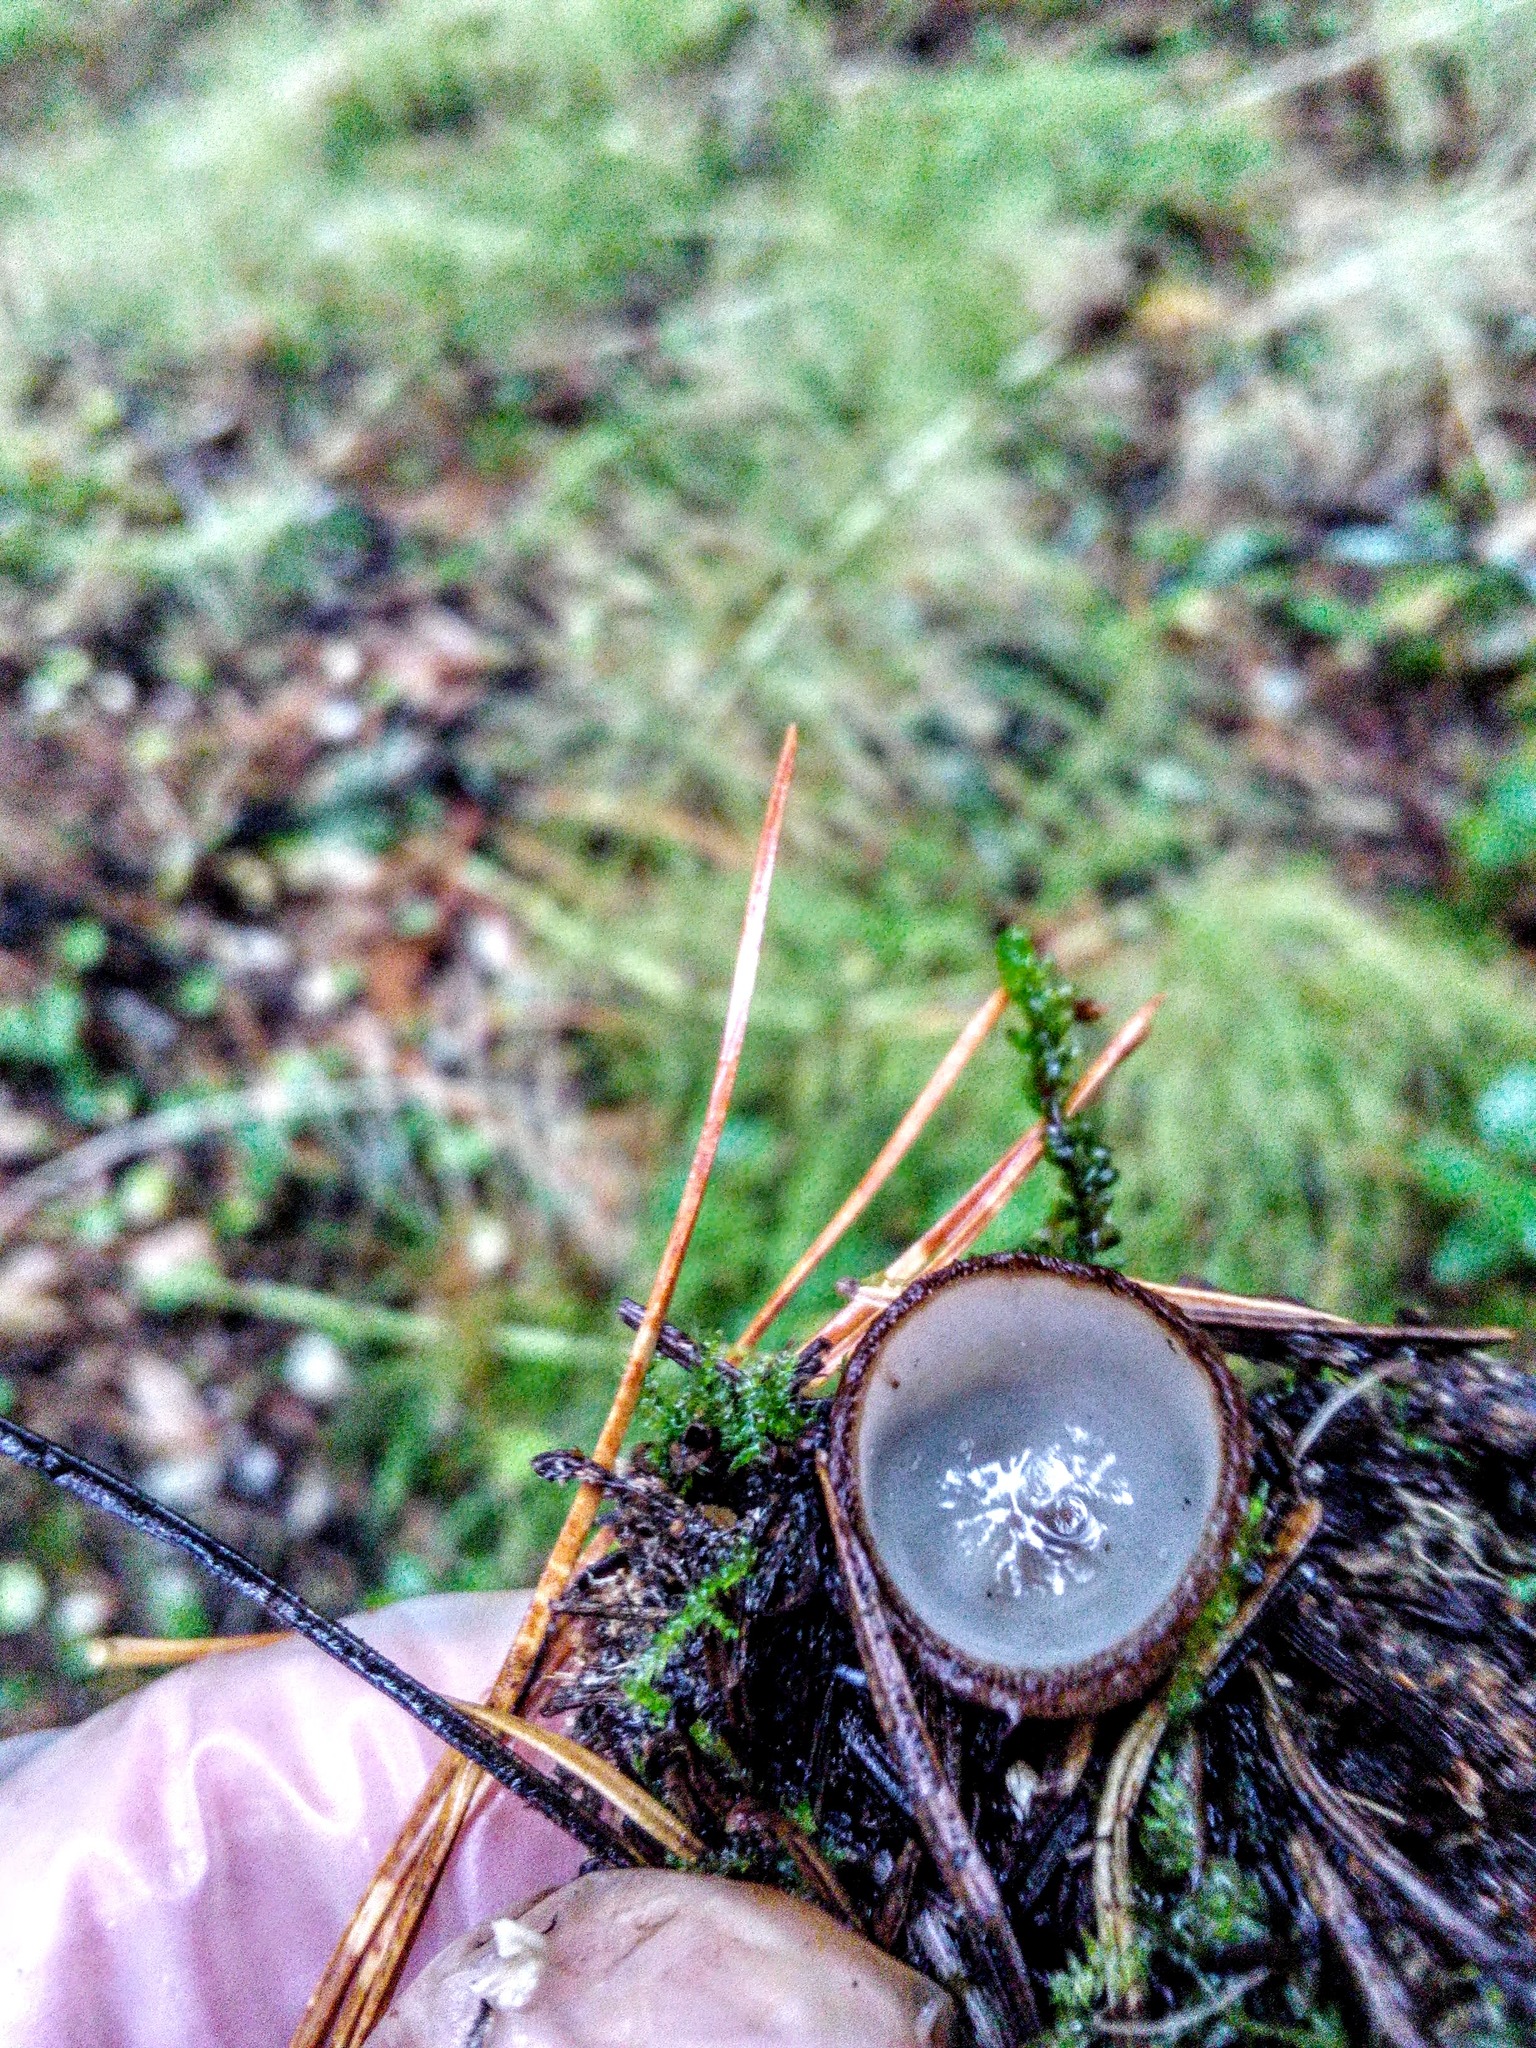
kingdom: Fungi
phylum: Ascomycota
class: Pezizomycetes
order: Pezizales
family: Pyronemataceae
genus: Humaria
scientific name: Humaria hemisphaerica
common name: Glazed cup
